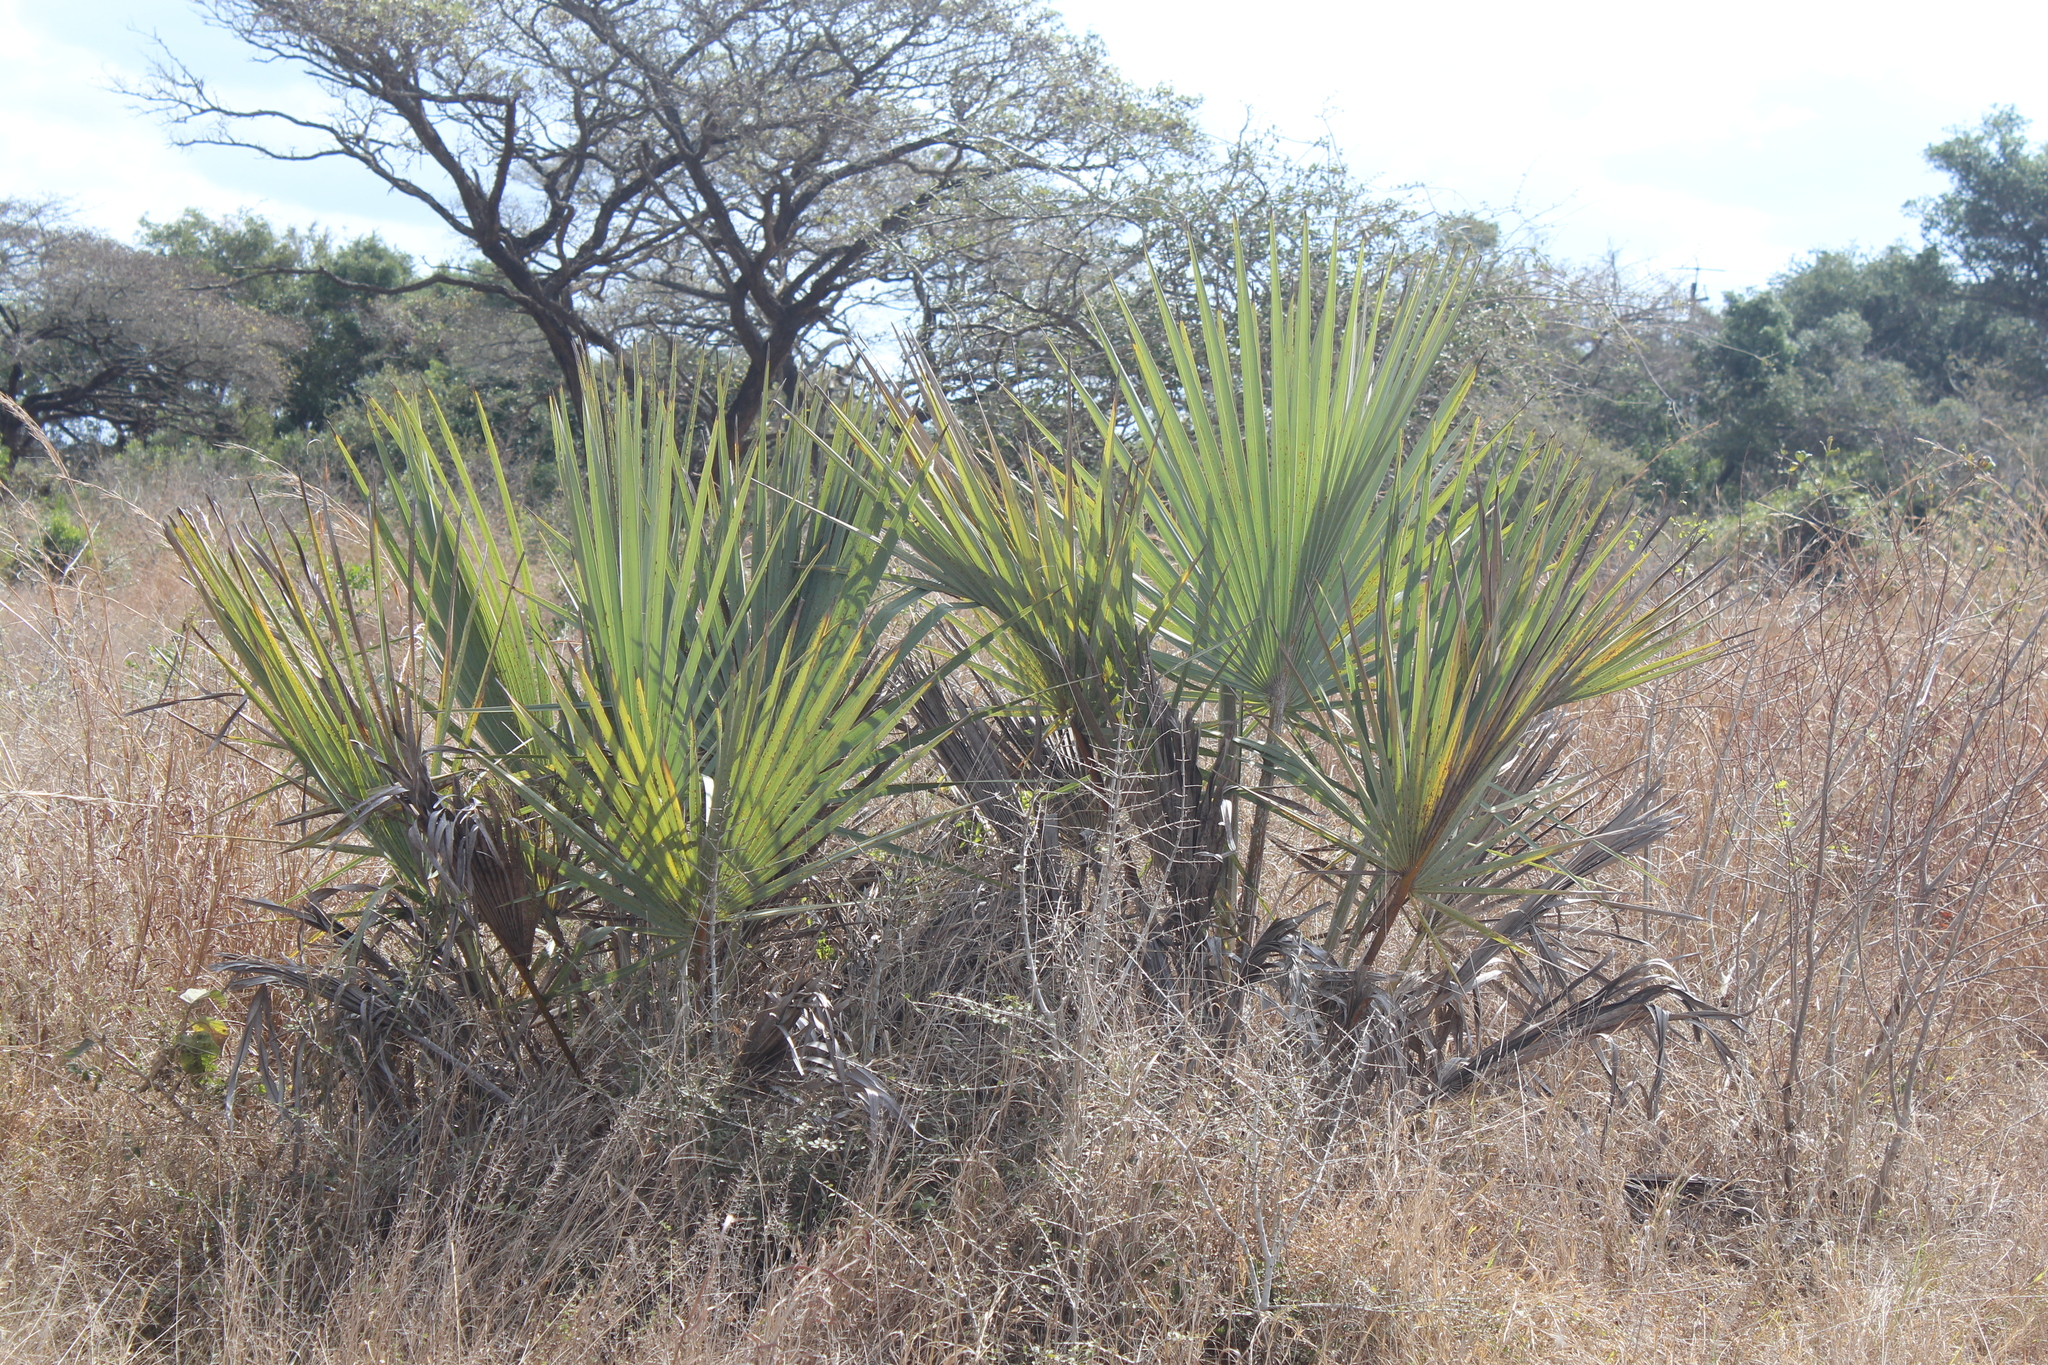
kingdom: Plantae
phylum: Tracheophyta
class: Liliopsida
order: Arecales
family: Arecaceae
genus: Hyphaene
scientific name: Hyphaene coriacea
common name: Ilala palm
